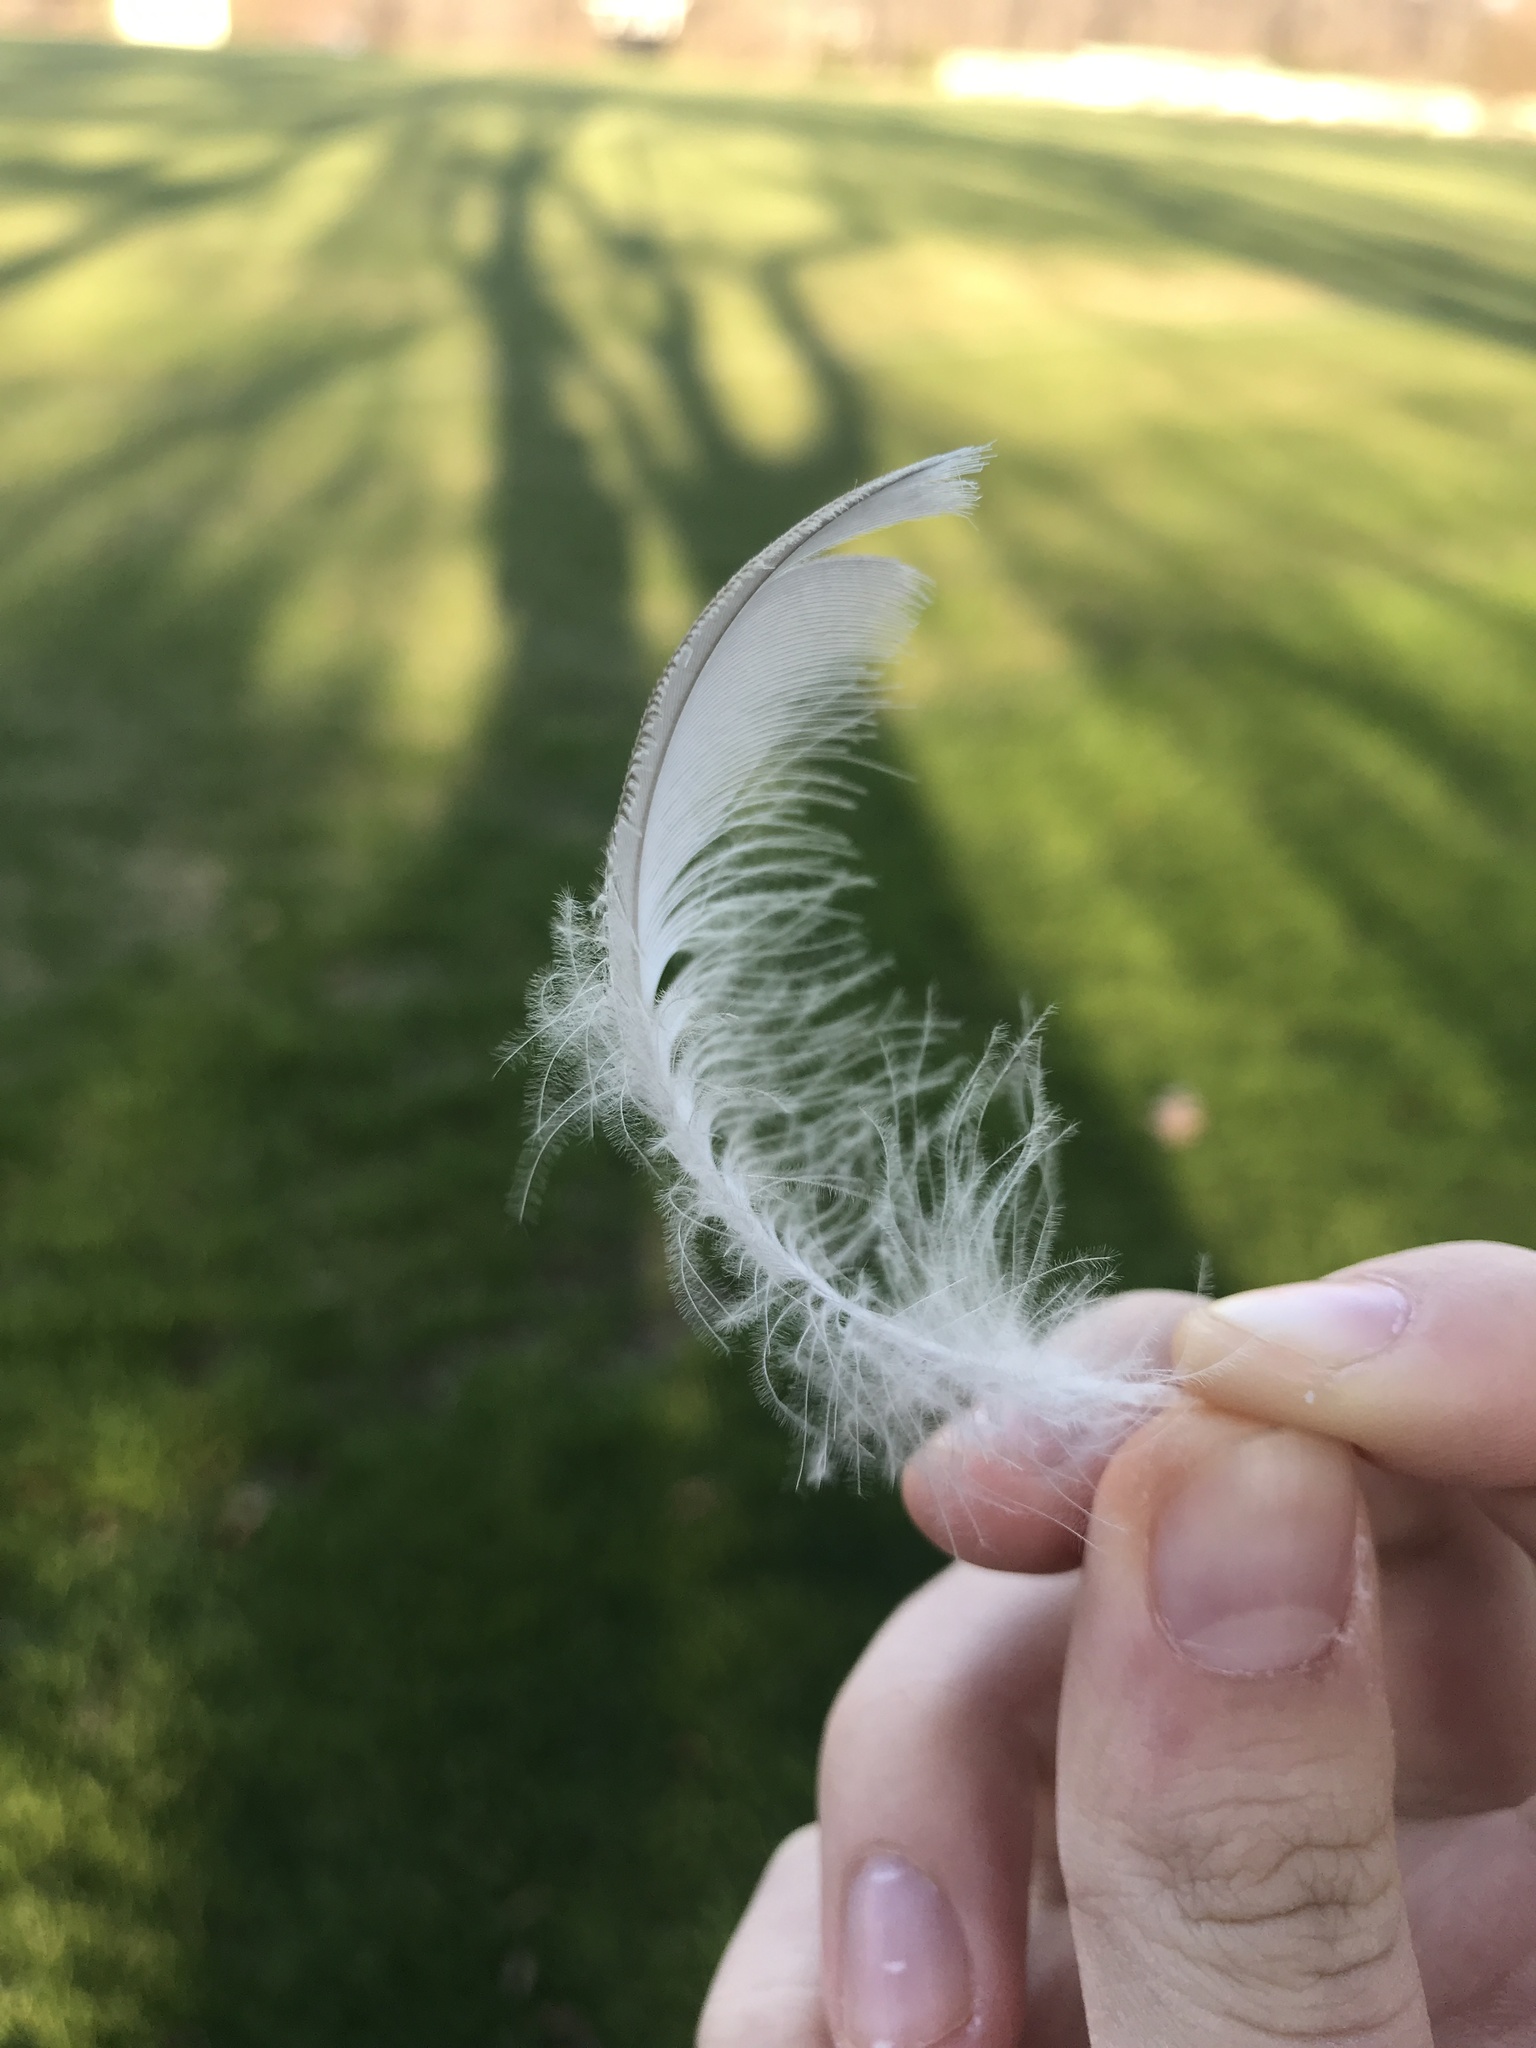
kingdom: Animalia
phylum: Chordata
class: Aves
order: Anseriformes
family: Anatidae
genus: Branta
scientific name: Branta canadensis
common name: Canada goose
